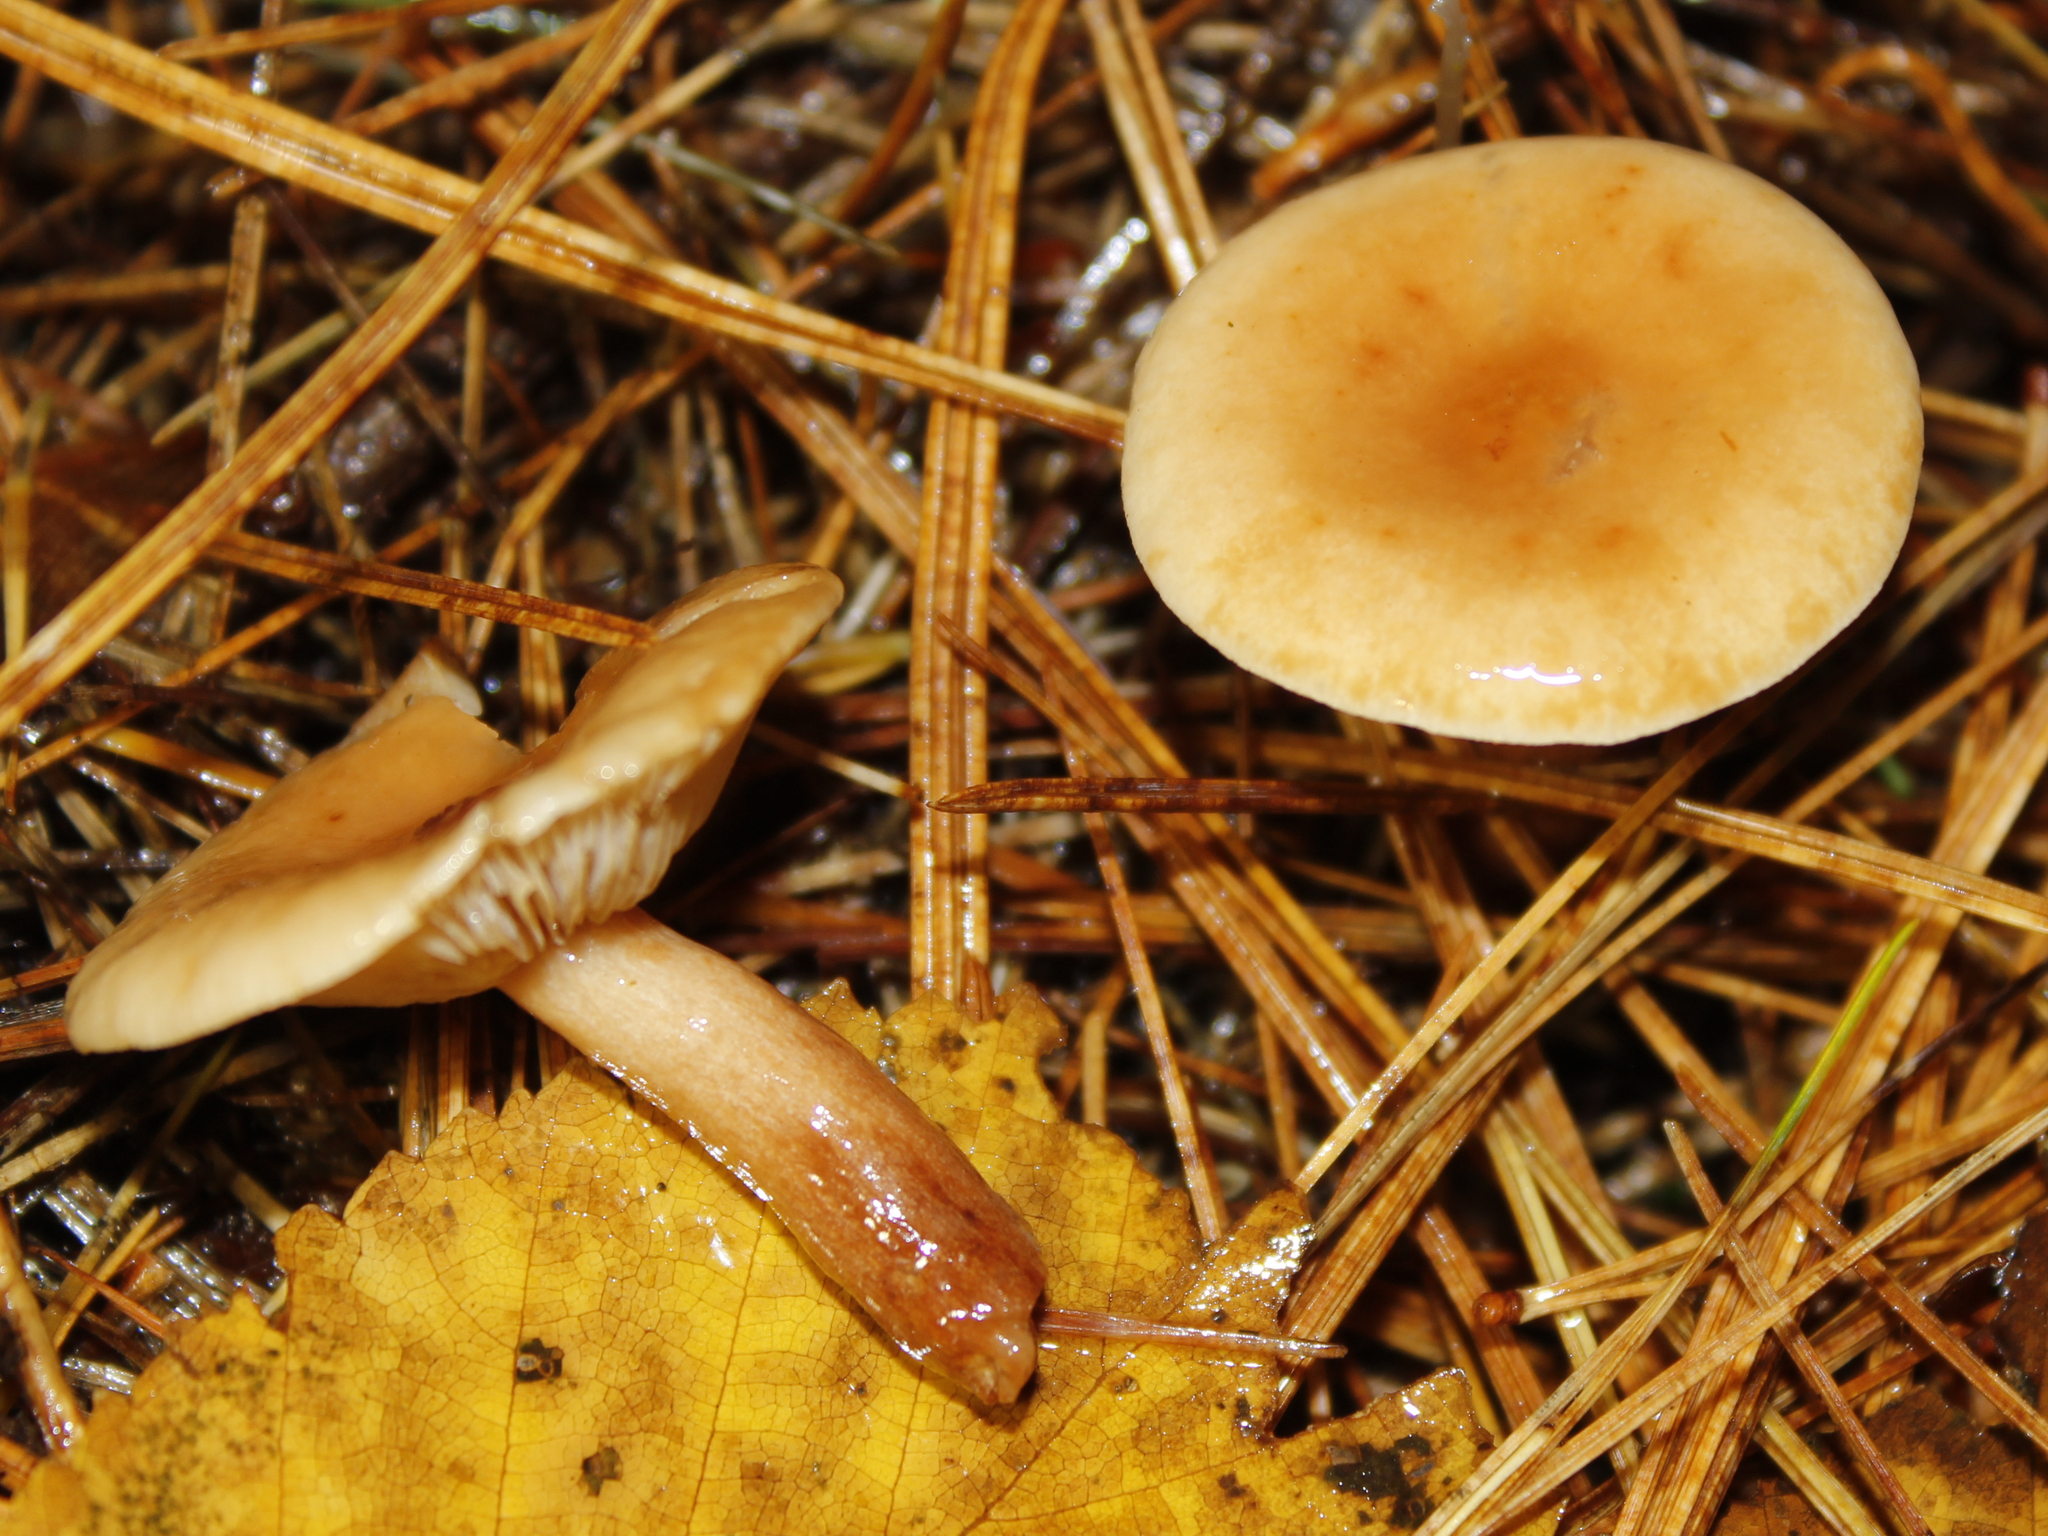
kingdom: Fungi
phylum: Basidiomycota
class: Agaricomycetes
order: Russulales
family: Russulaceae
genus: Lactarius
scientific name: Lactarius tabidus
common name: Birch milkcap
